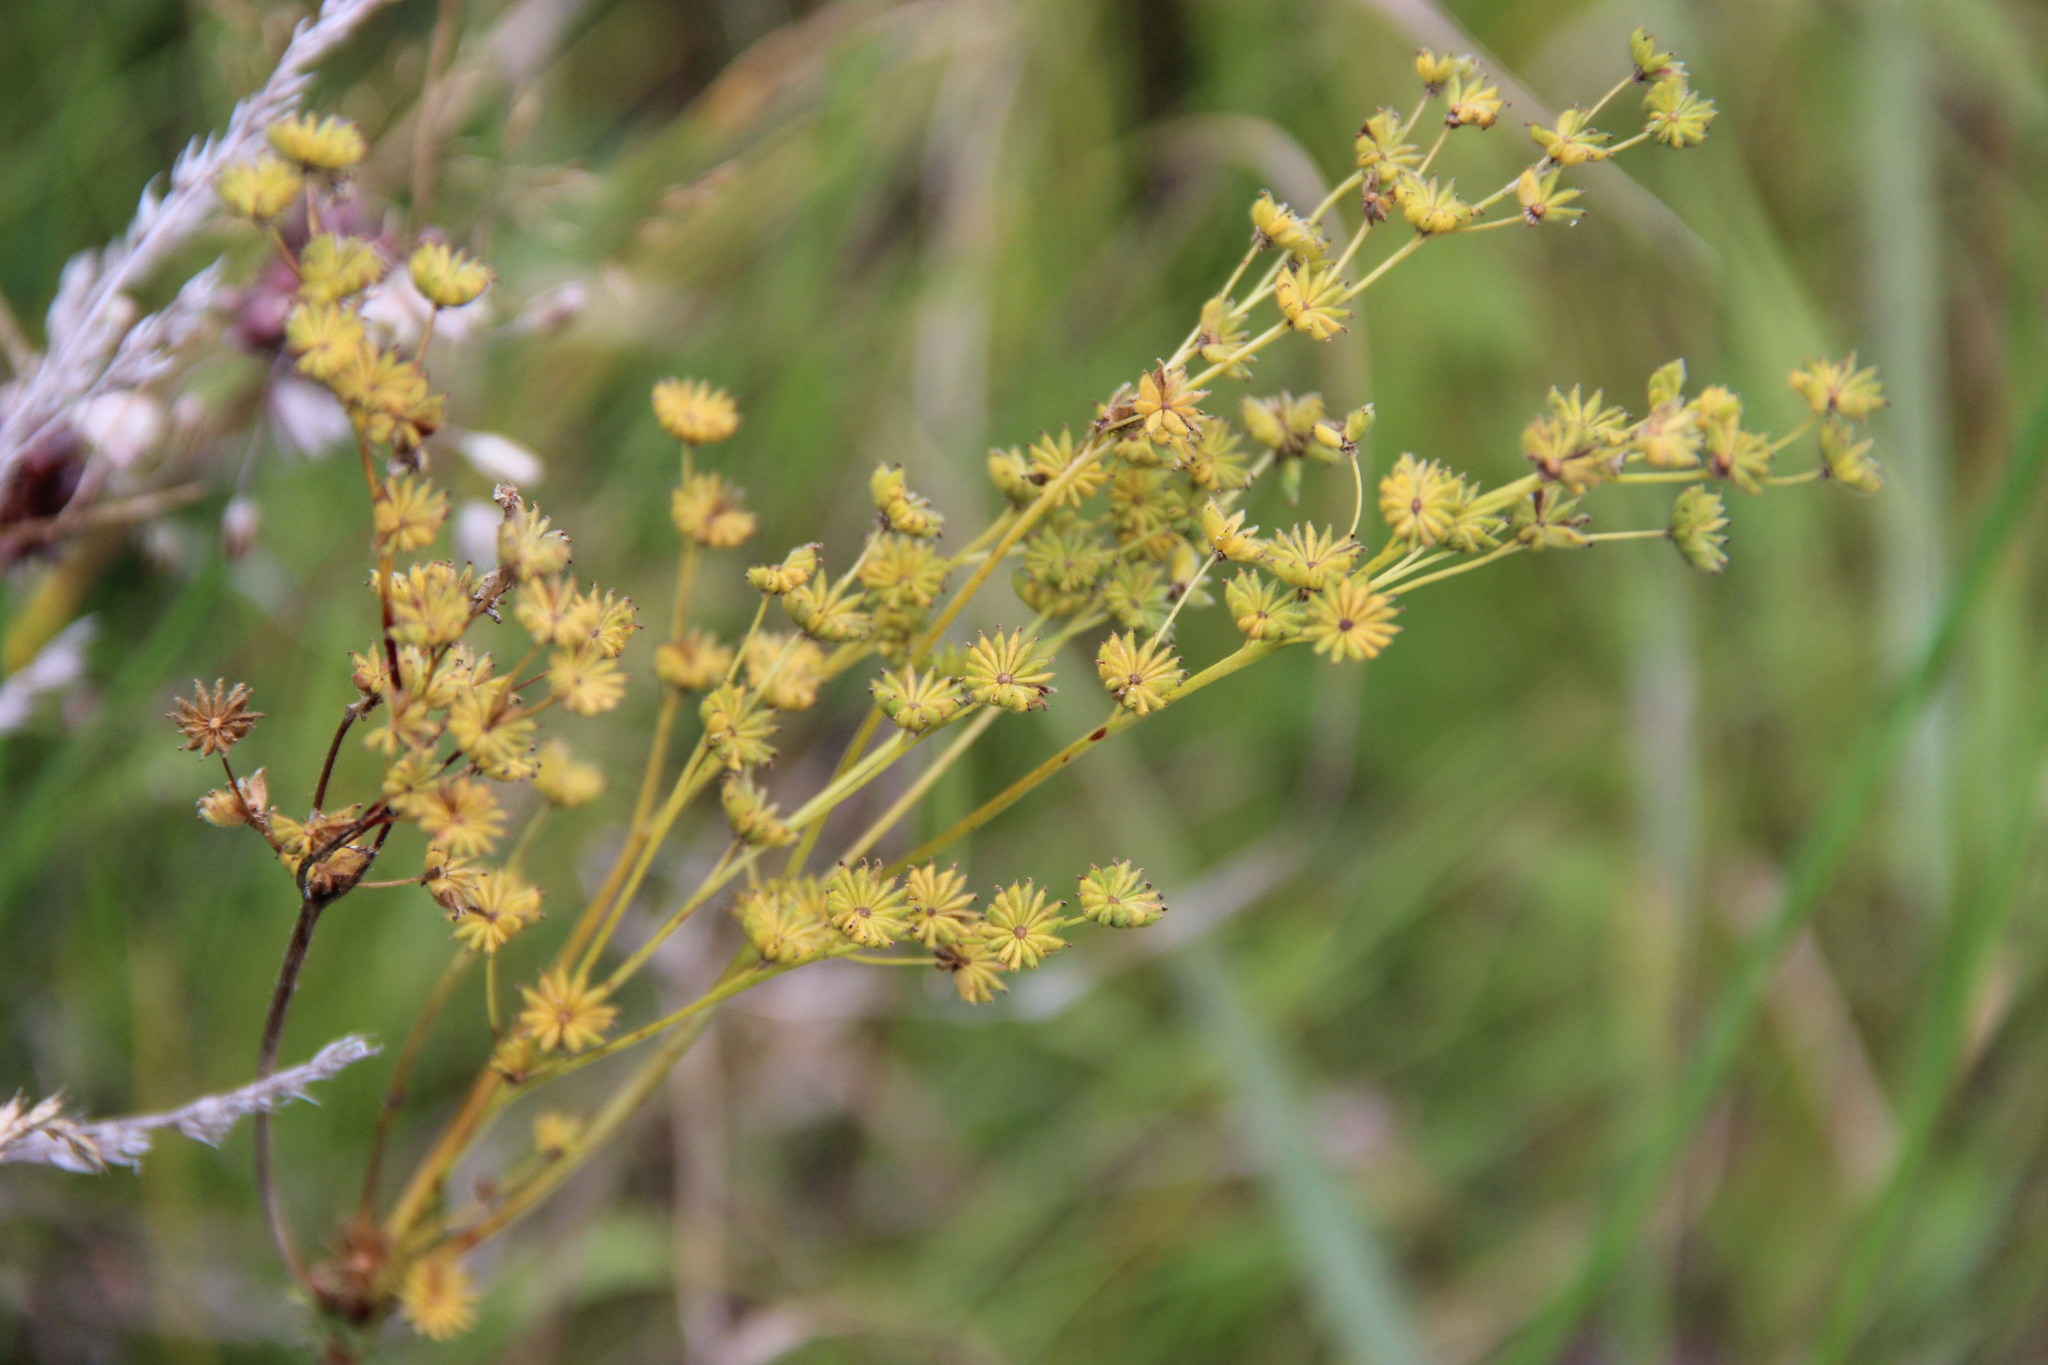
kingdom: Plantae
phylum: Tracheophyta
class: Magnoliopsida
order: Rosales
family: Rosaceae
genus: Filipendula
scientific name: Filipendula vulgaris
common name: Dropwort
